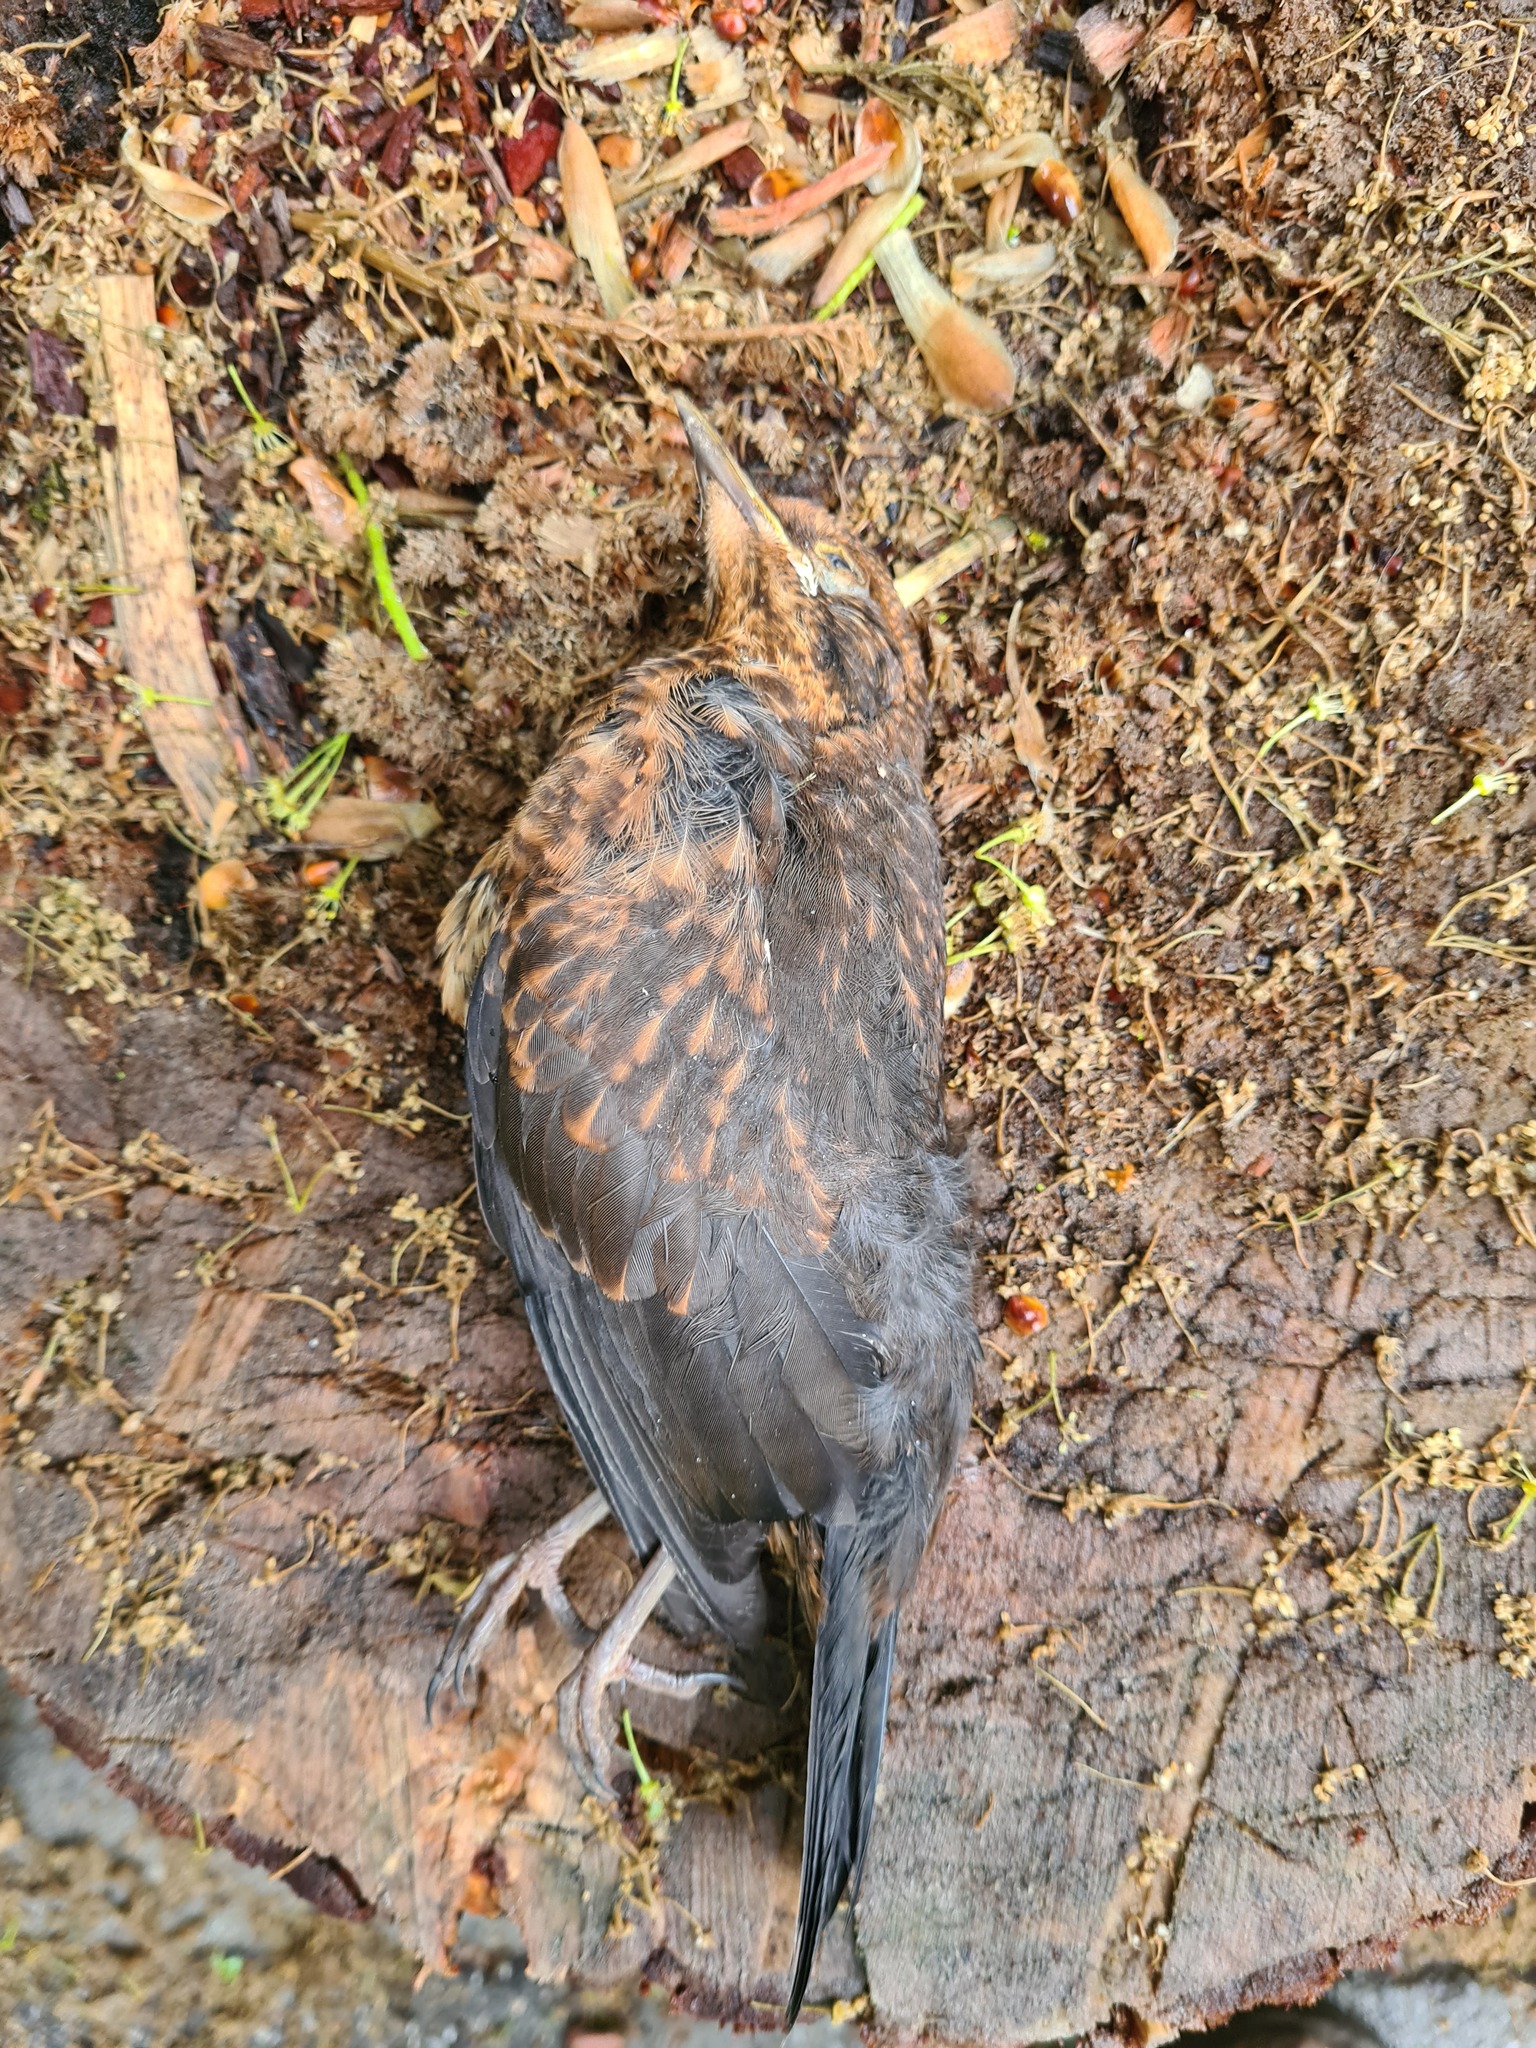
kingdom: Animalia
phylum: Chordata
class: Aves
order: Passeriformes
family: Turdidae
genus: Turdus
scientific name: Turdus merula
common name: Common blackbird
